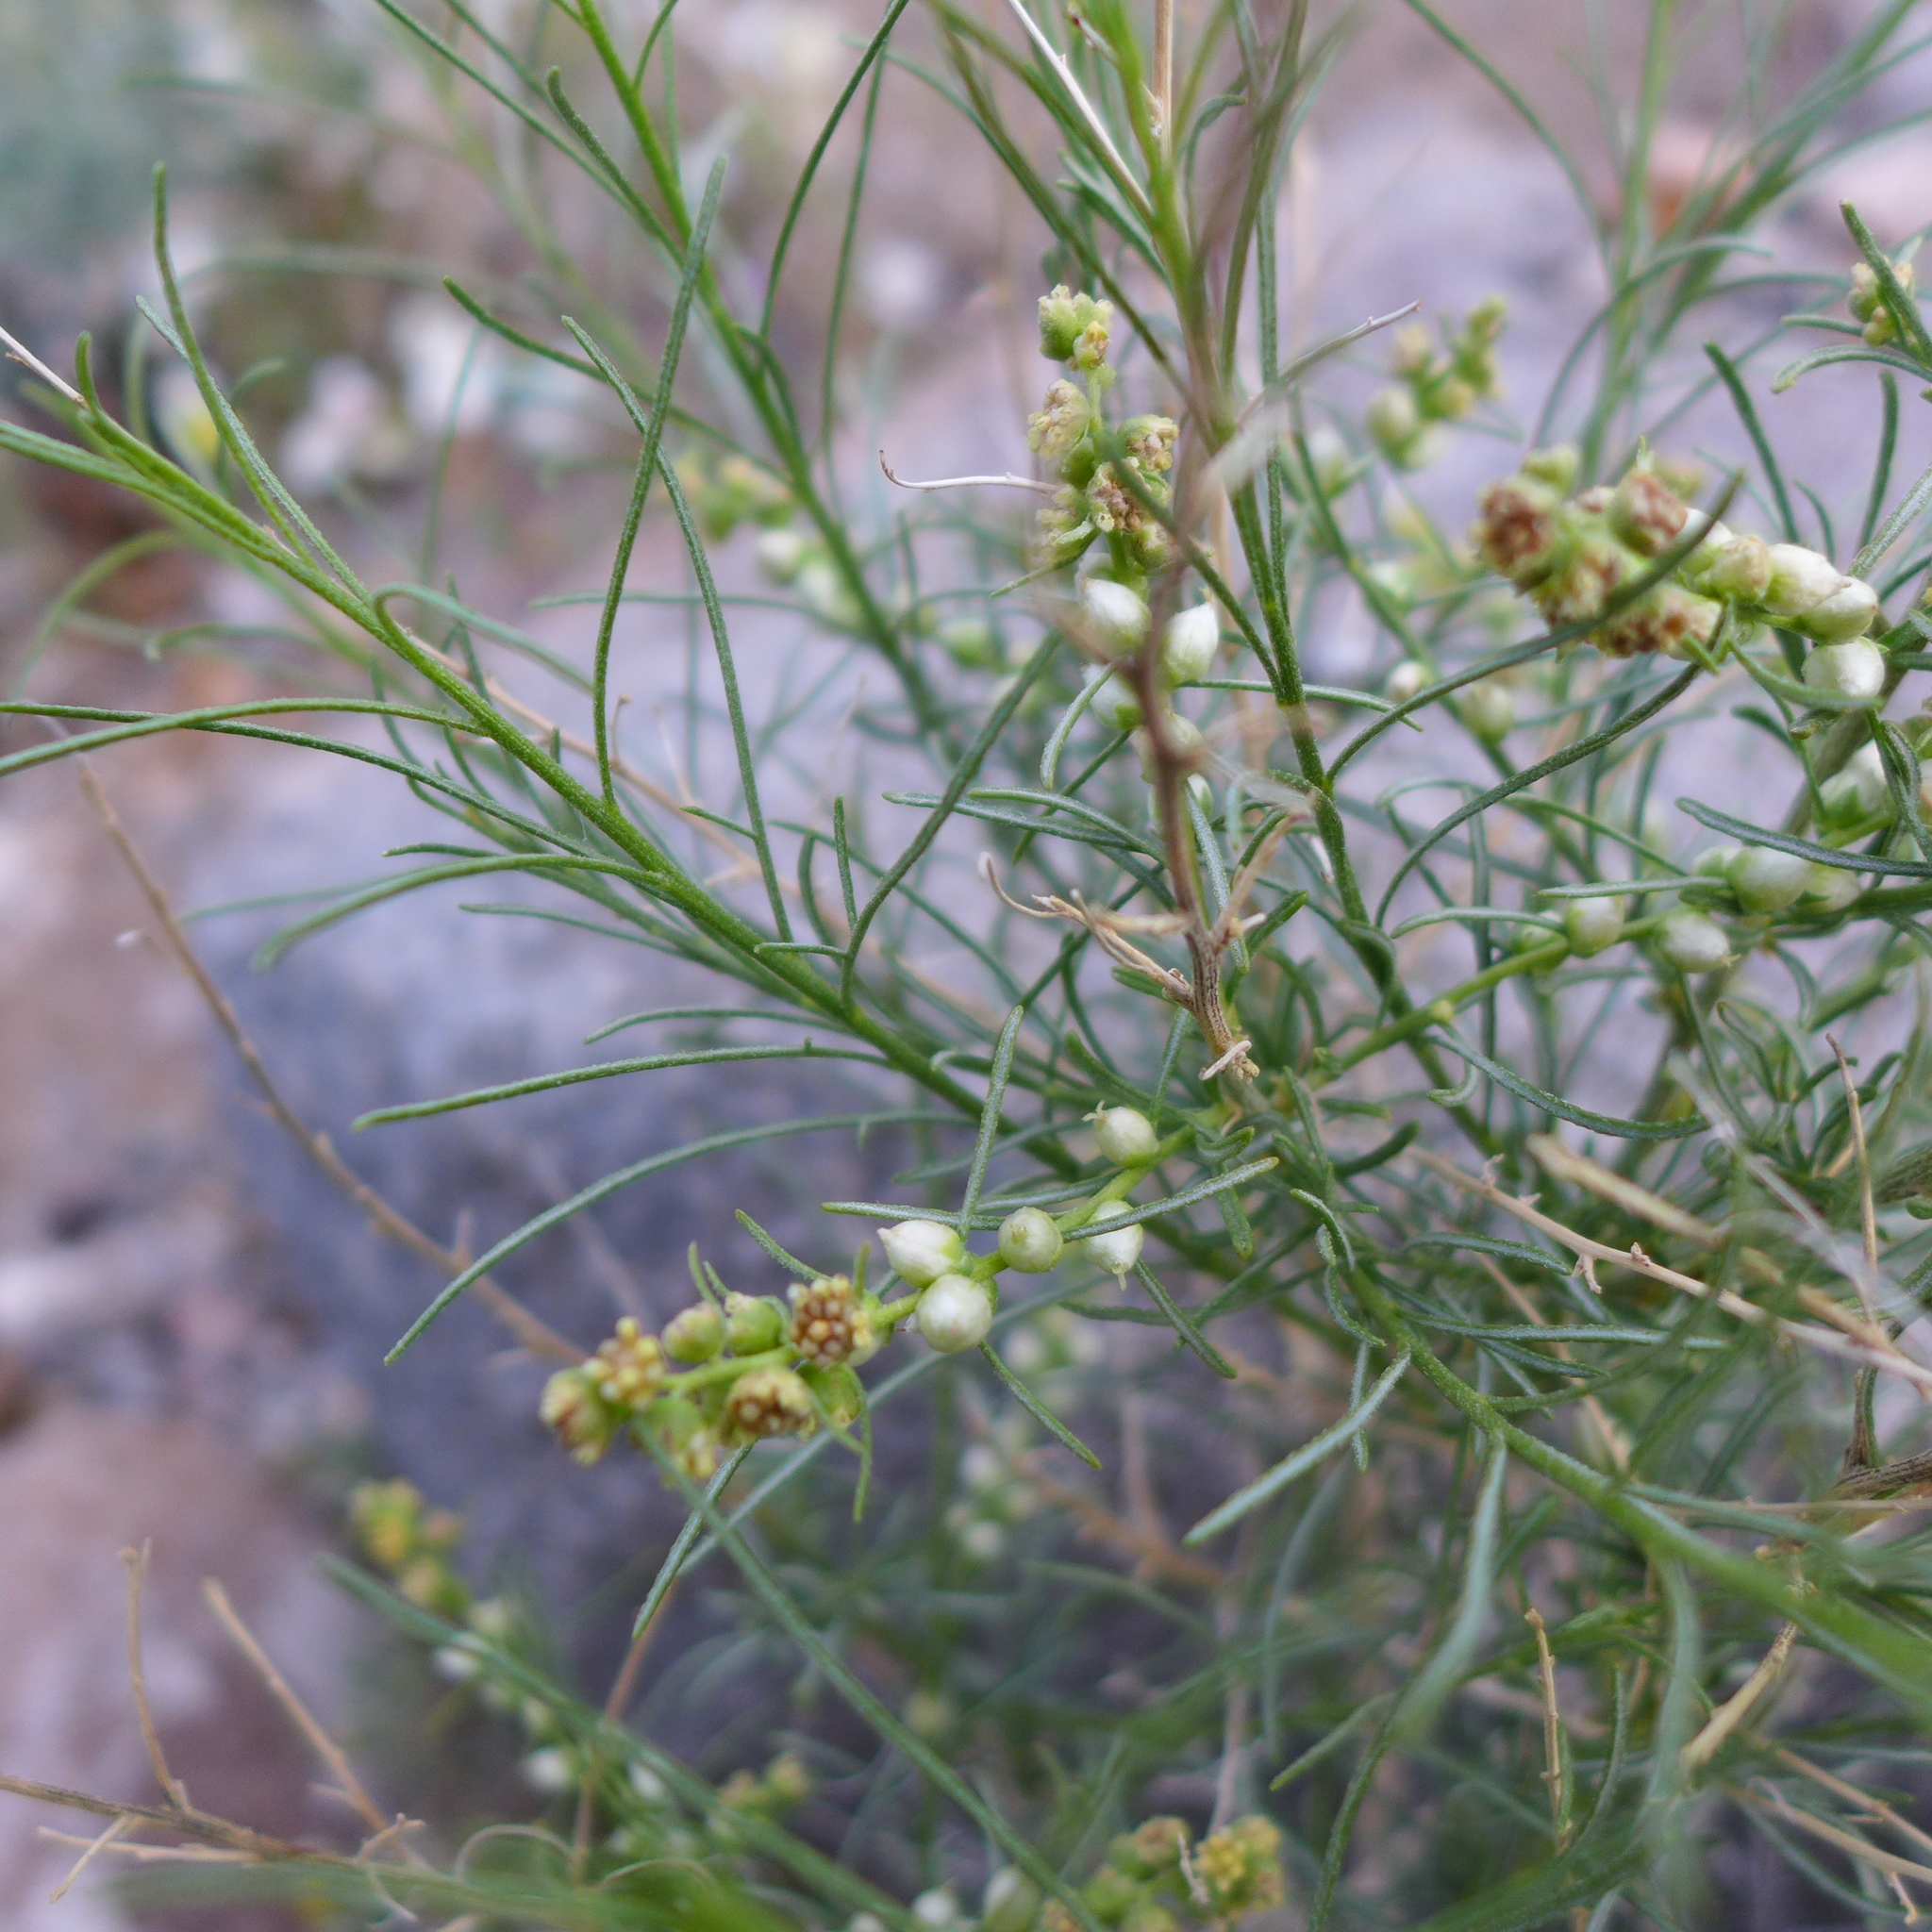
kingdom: Plantae
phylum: Tracheophyta
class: Magnoliopsida
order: Asterales
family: Asteraceae
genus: Ambrosia
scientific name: Ambrosia salsola
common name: Burrobrush
